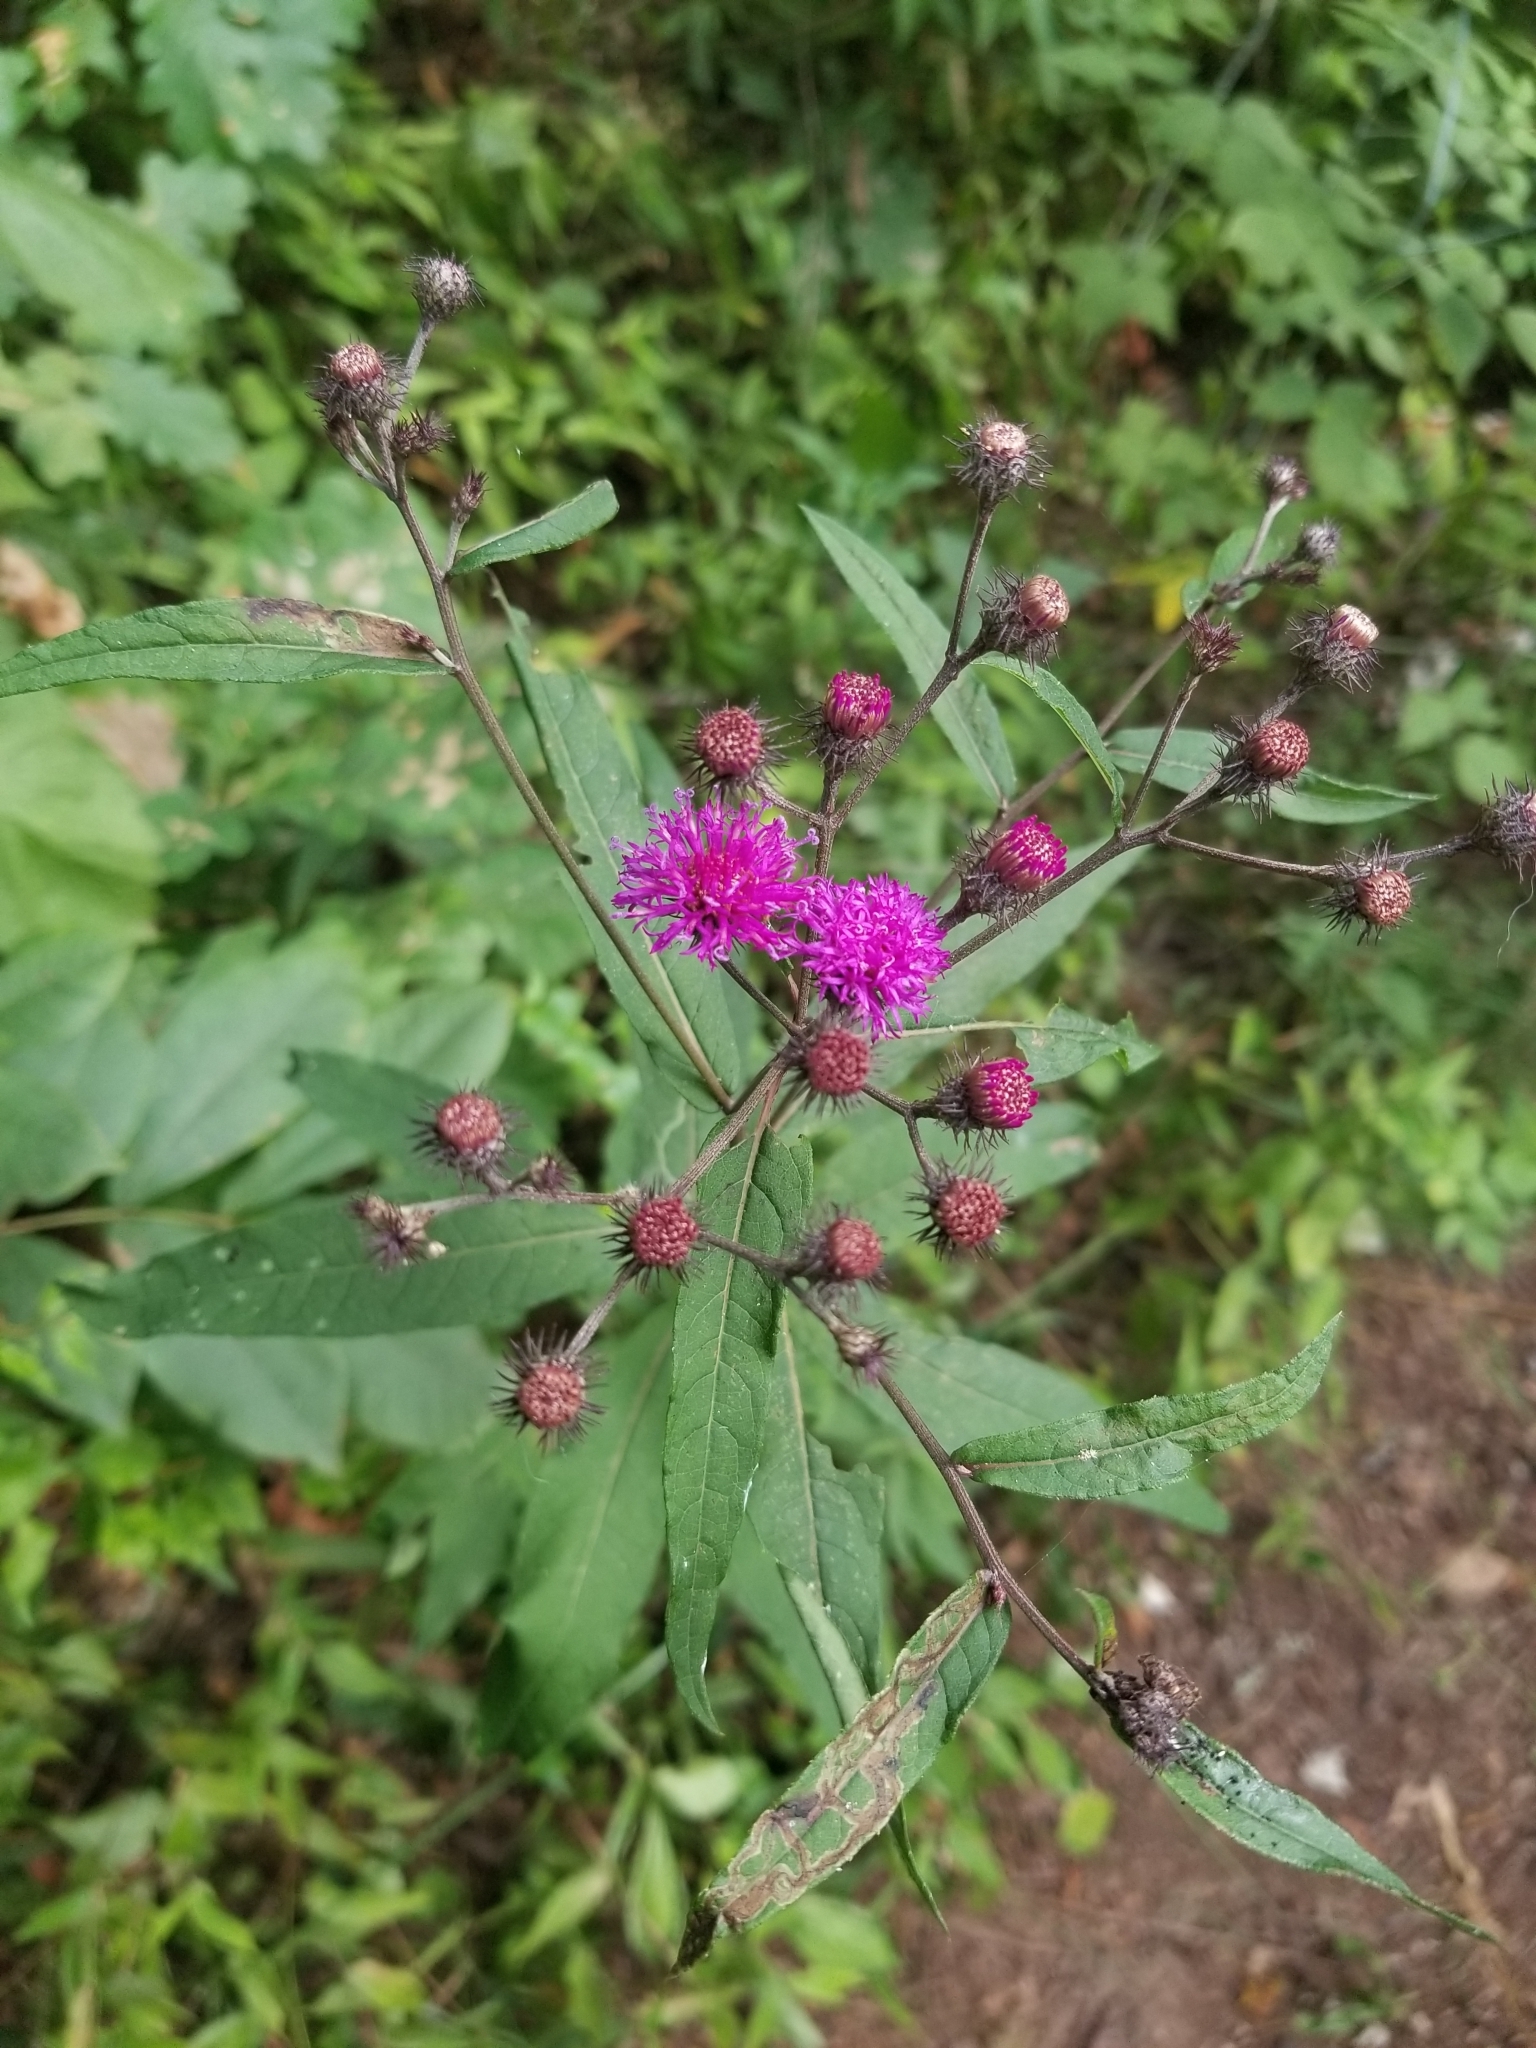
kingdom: Plantae
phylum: Tracheophyta
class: Magnoliopsida
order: Asterales
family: Asteraceae
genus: Vernonia
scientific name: Vernonia noveboracensis
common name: New york ironweed
